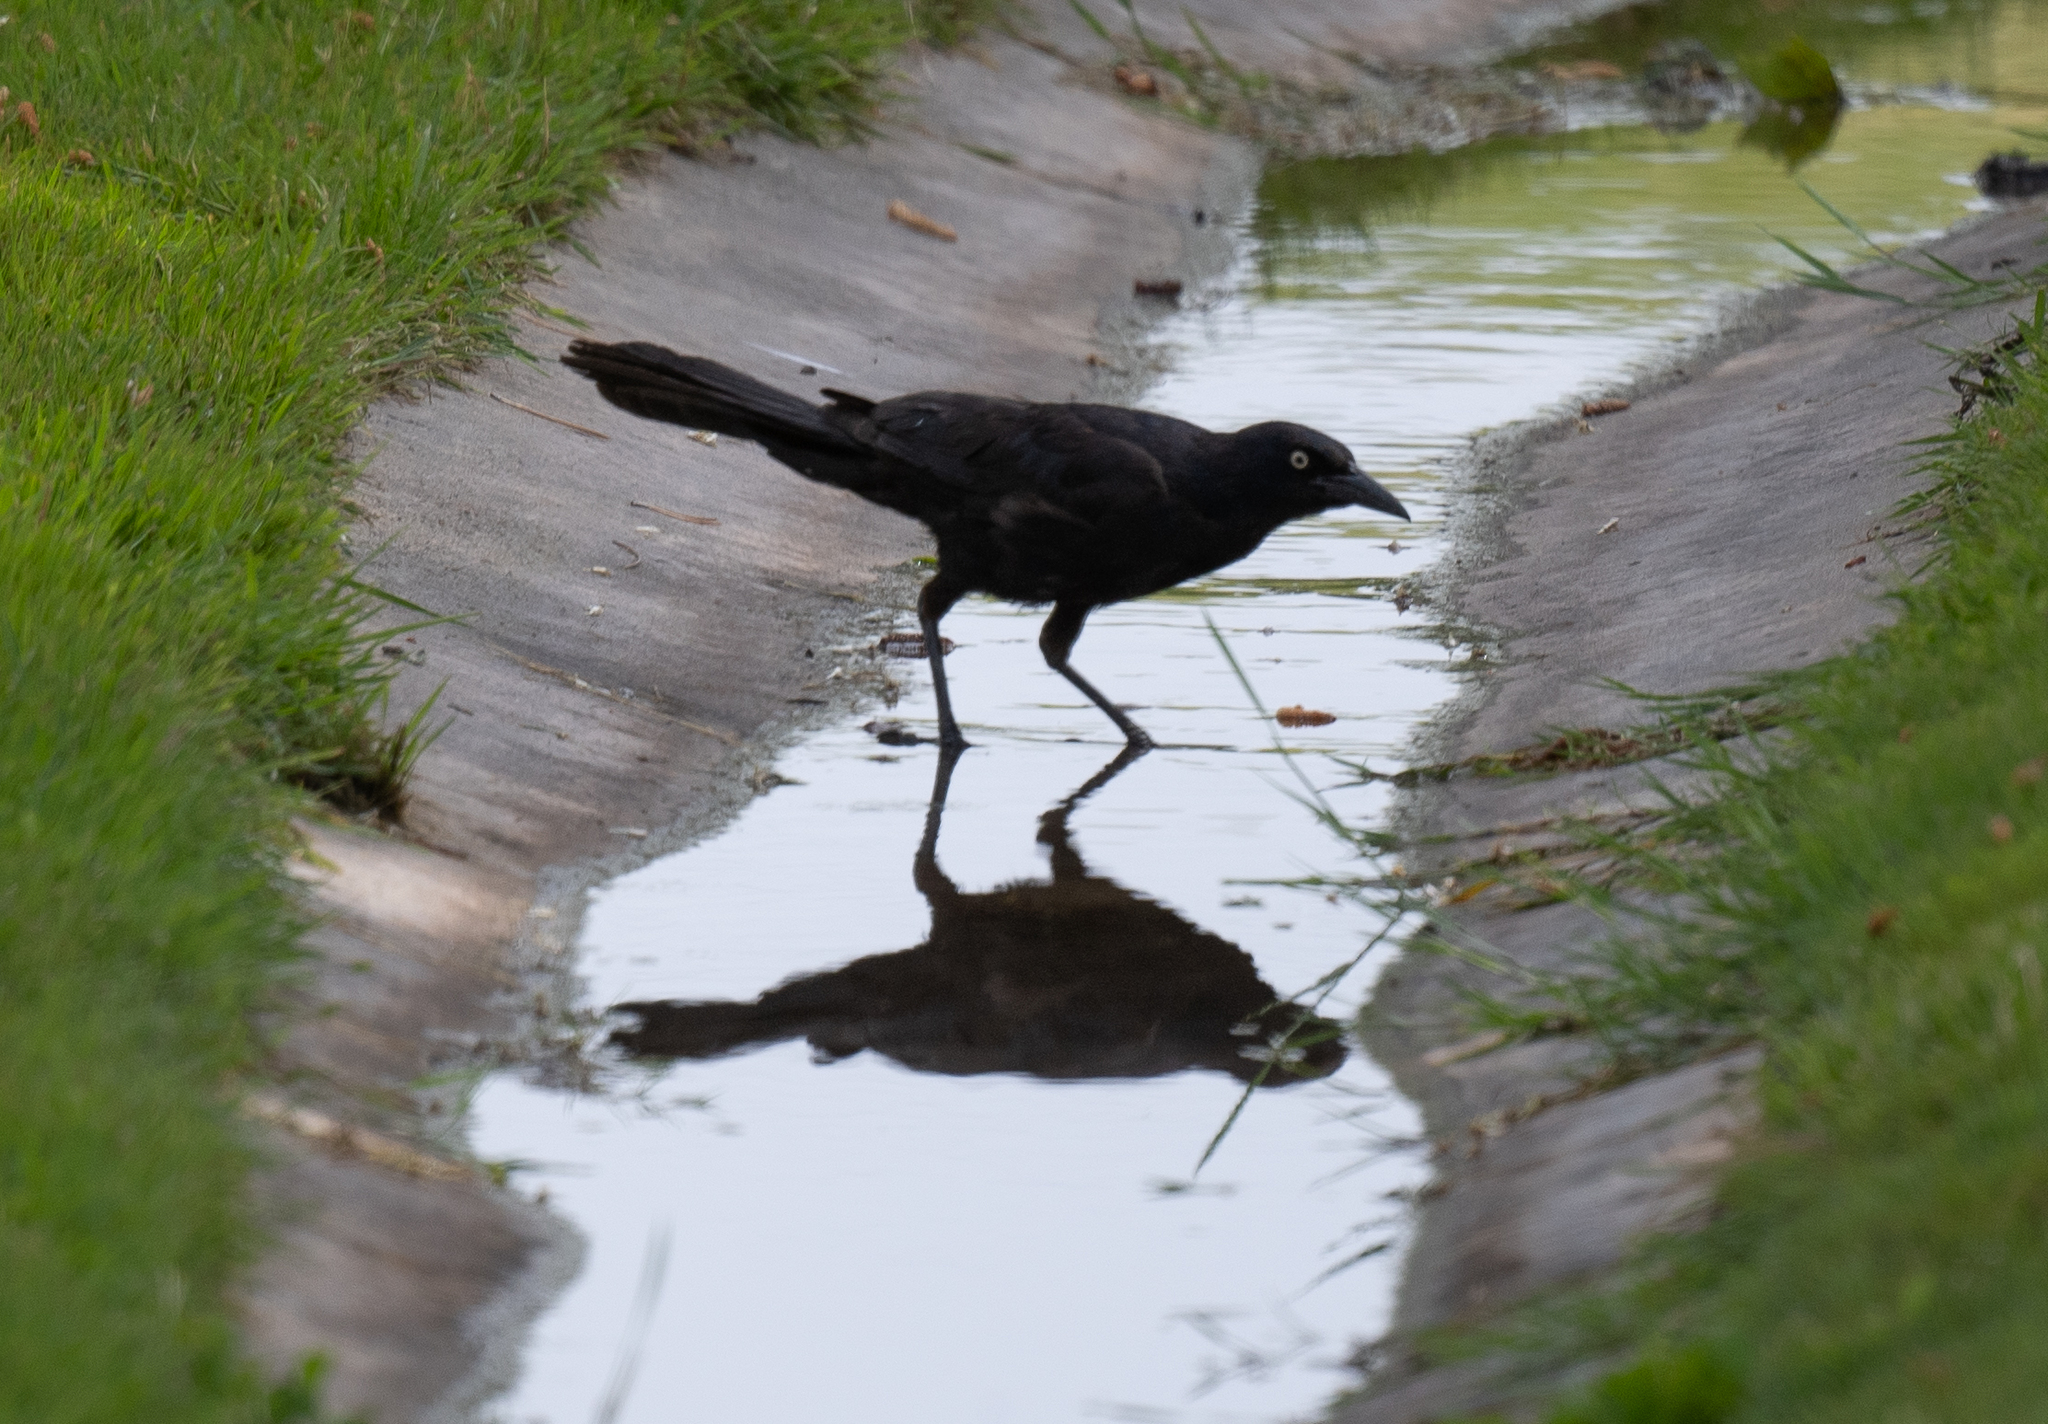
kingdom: Animalia
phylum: Chordata
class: Aves
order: Passeriformes
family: Icteridae
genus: Quiscalus
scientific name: Quiscalus mexicanus
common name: Great-tailed grackle
